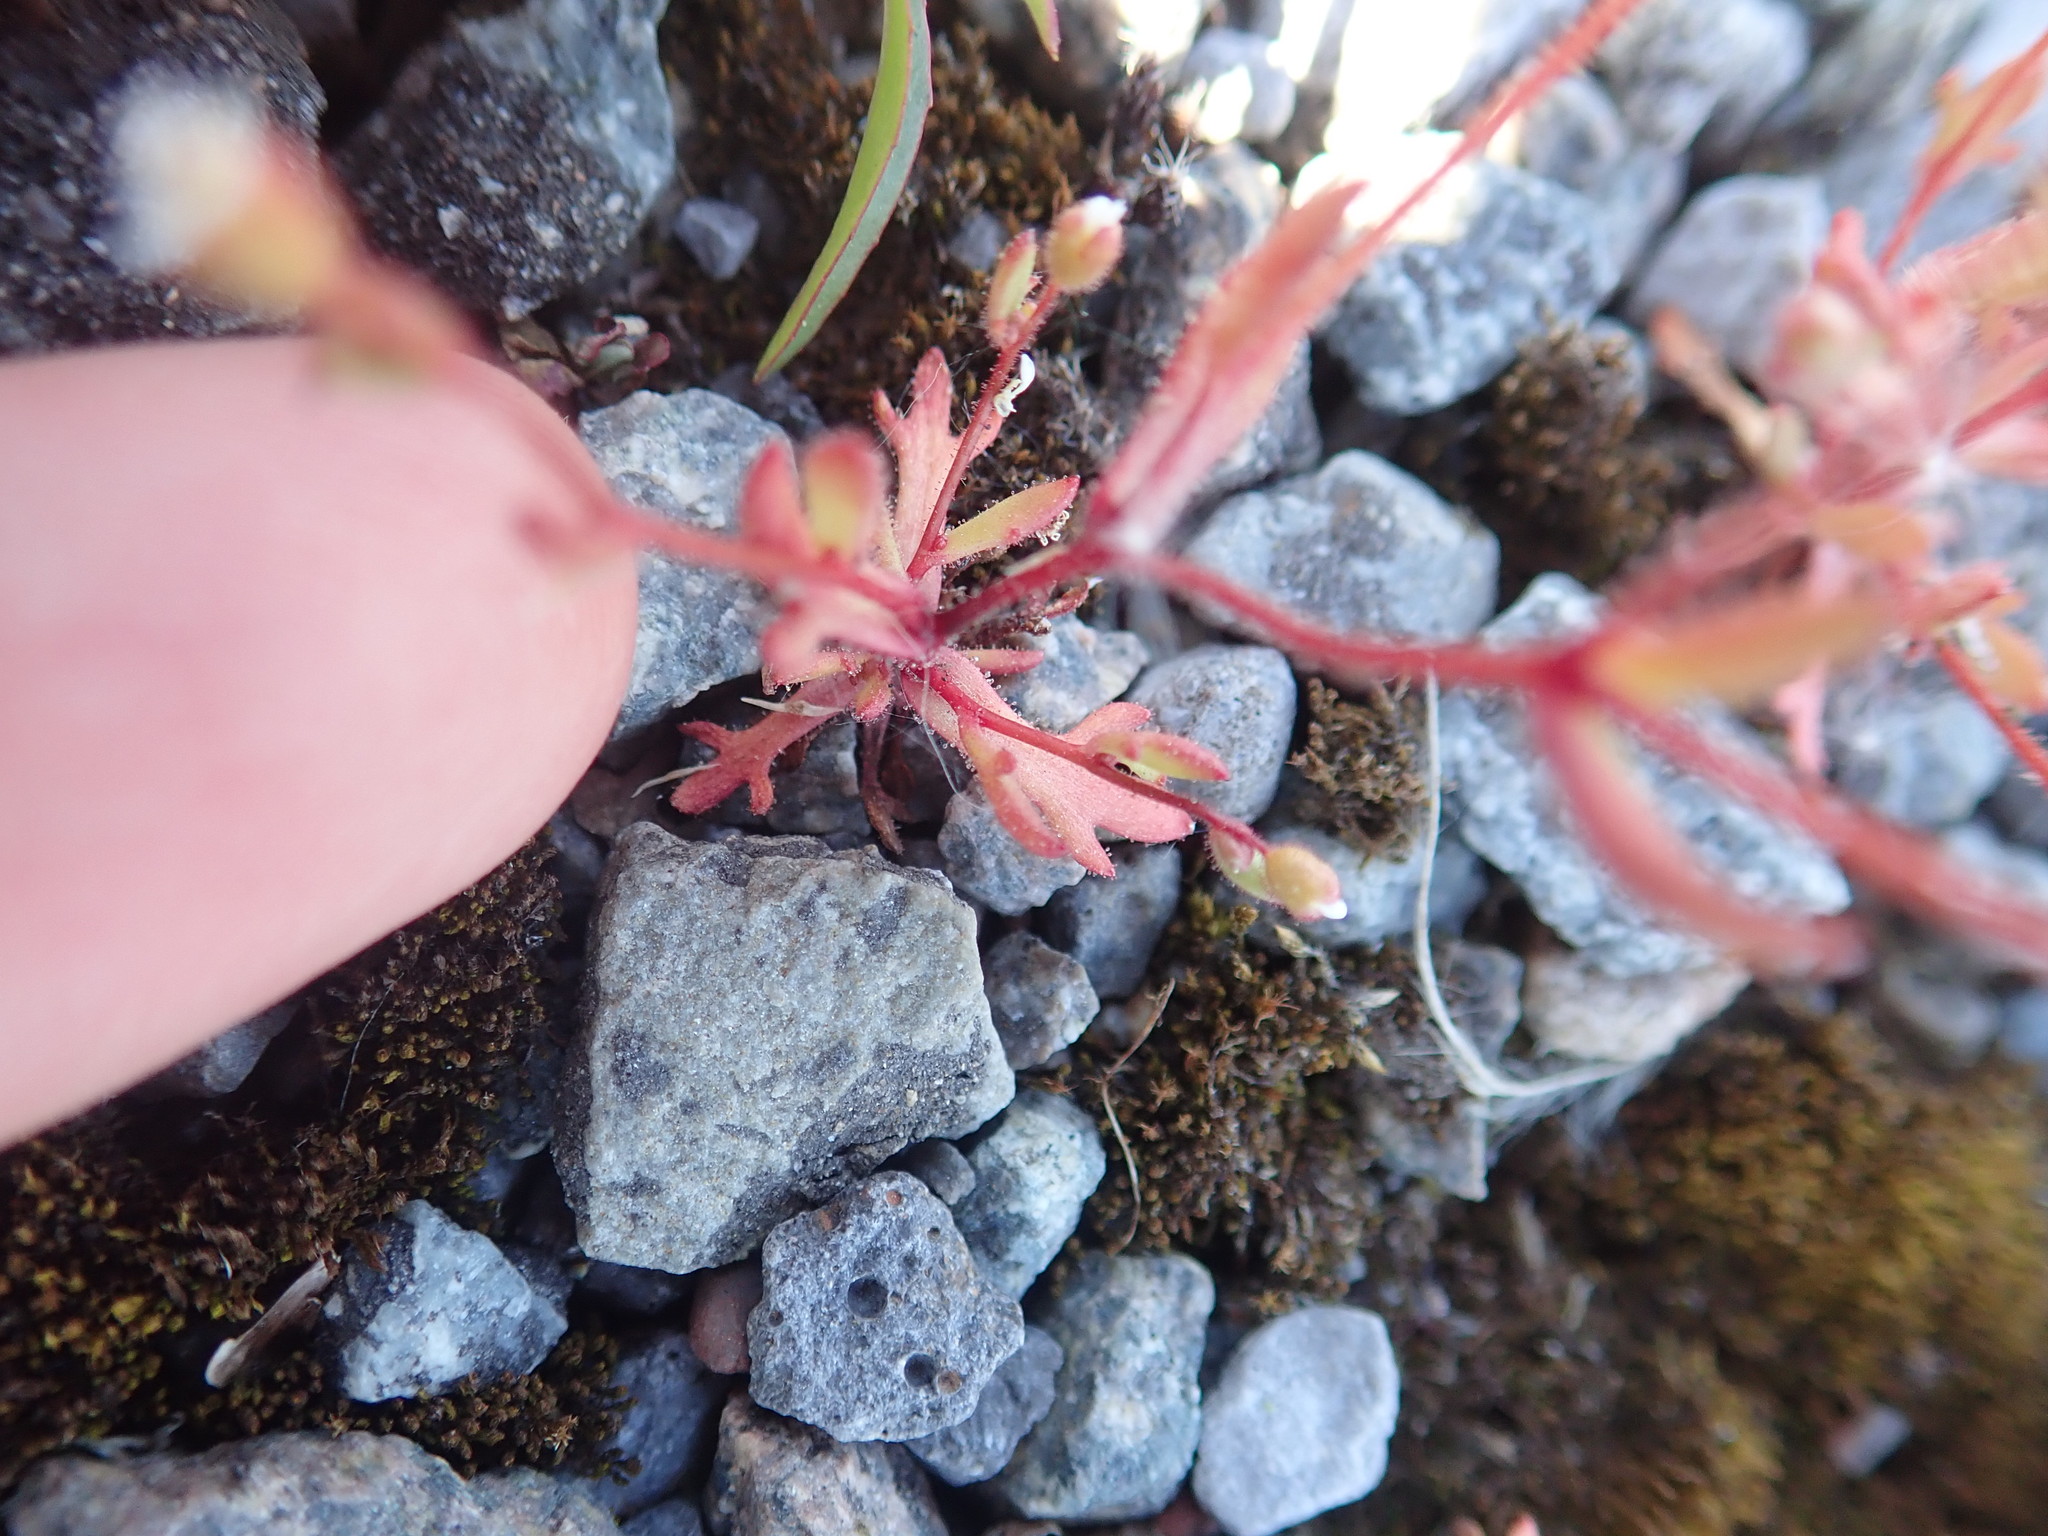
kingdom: Plantae
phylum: Tracheophyta
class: Magnoliopsida
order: Saxifragales
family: Saxifragaceae
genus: Saxifraga
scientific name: Saxifraga tridactylites
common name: Rue-leaved saxifrage
